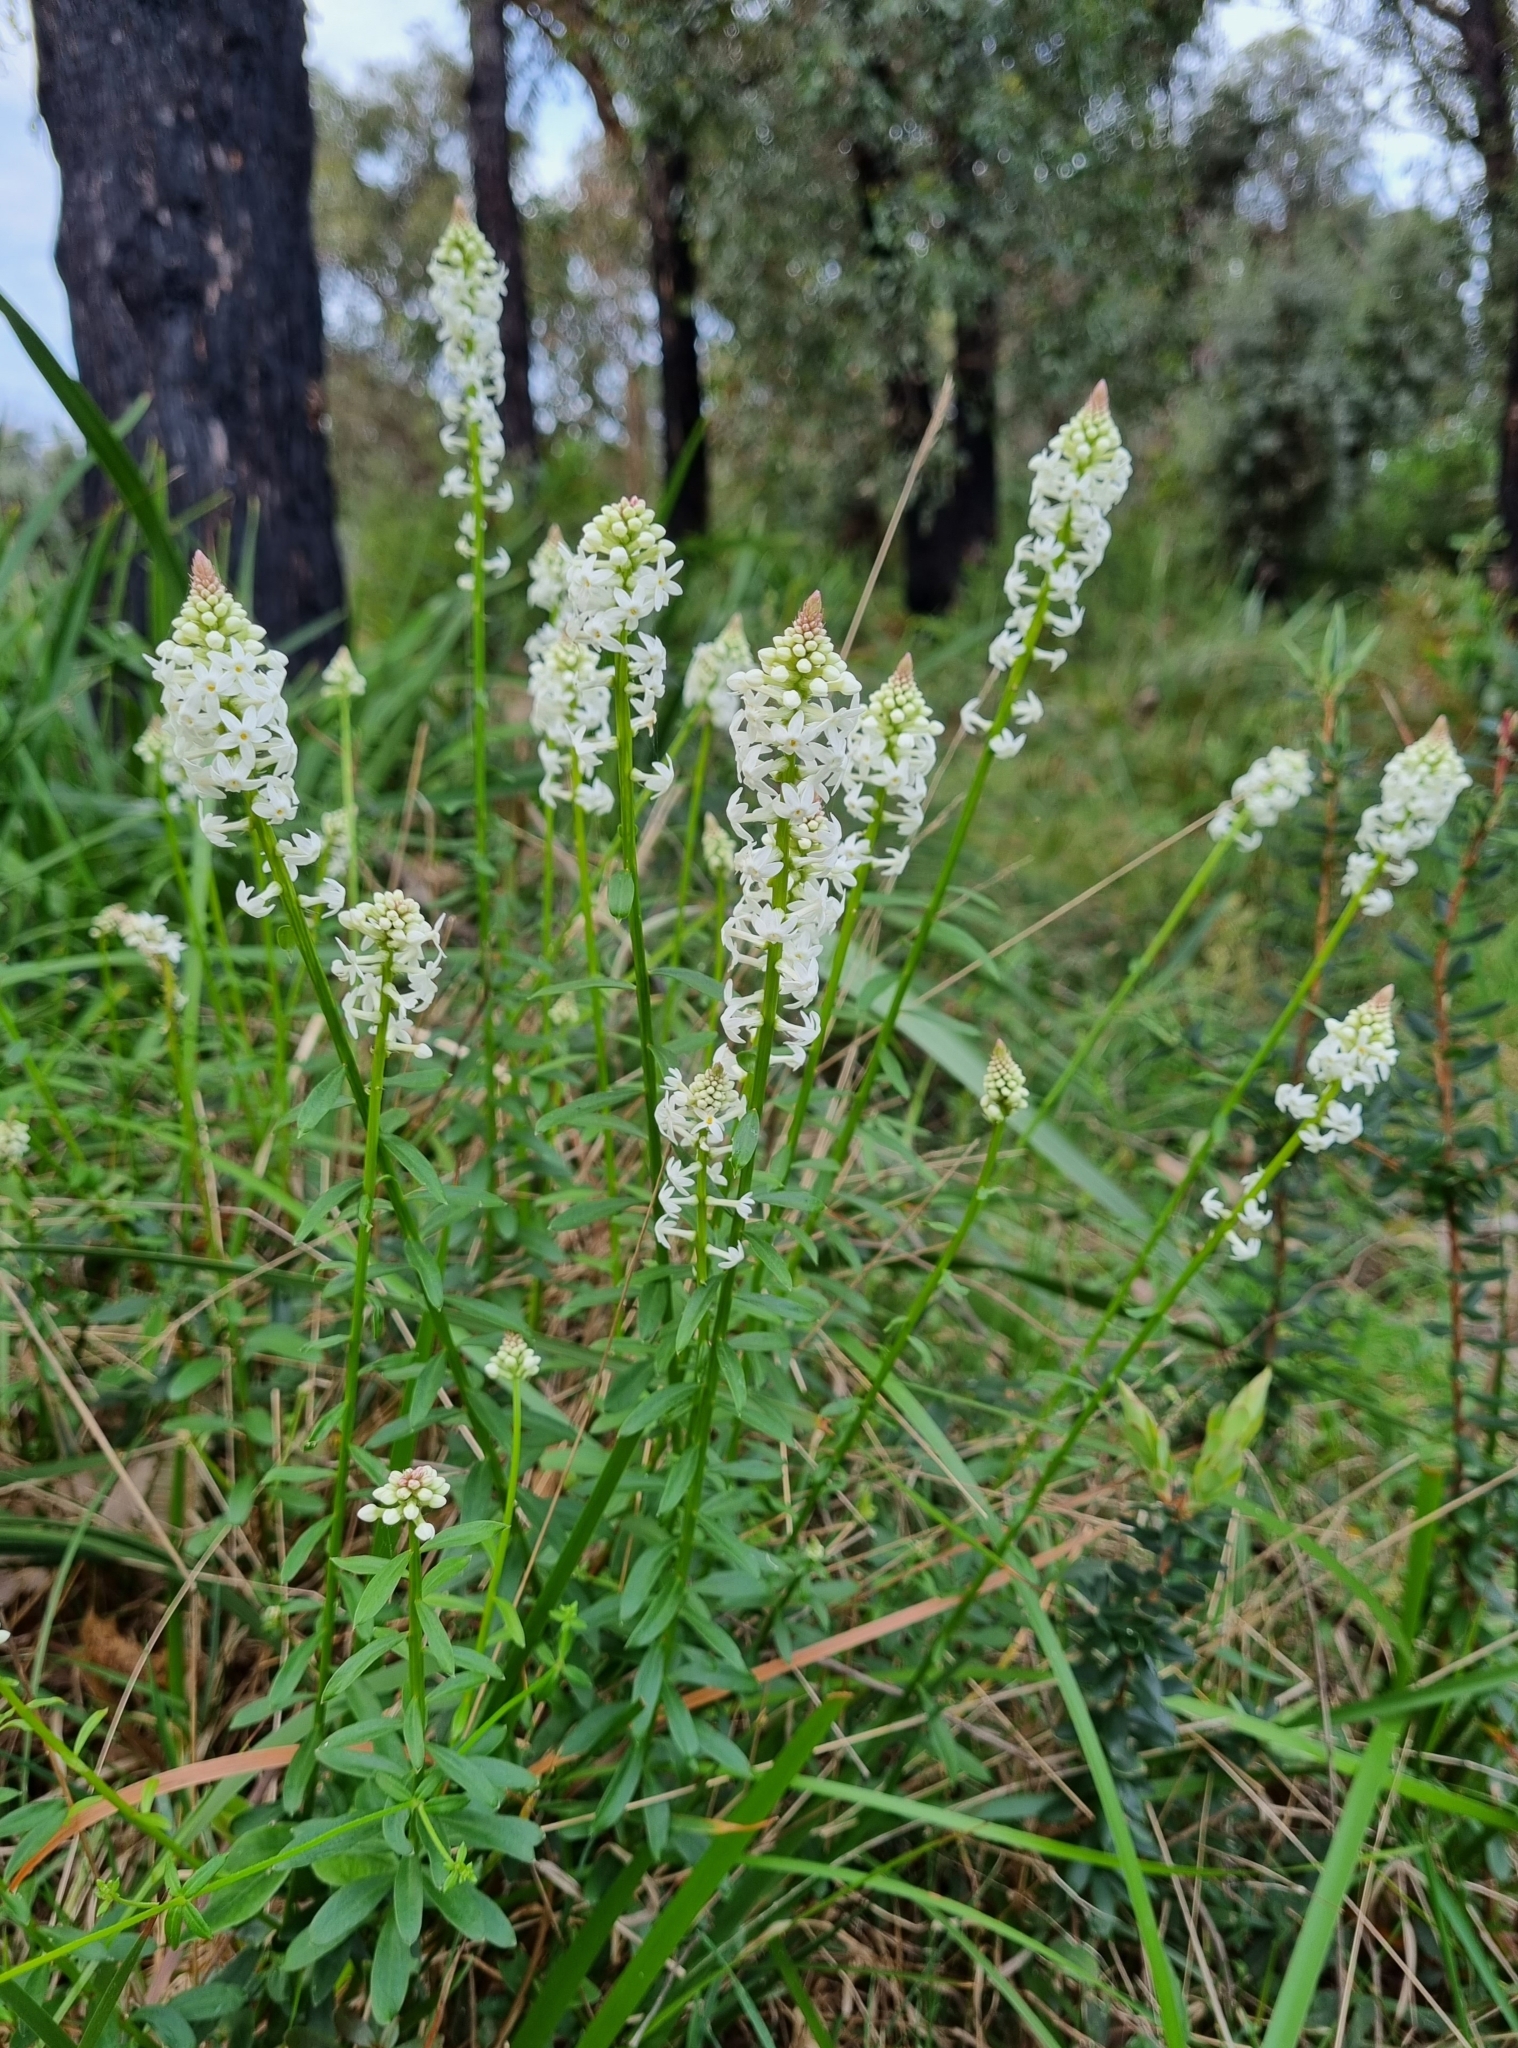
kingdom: Plantae
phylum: Tracheophyta
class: Magnoliopsida
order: Celastrales
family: Celastraceae
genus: Stackhousia
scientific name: Stackhousia monogyna
